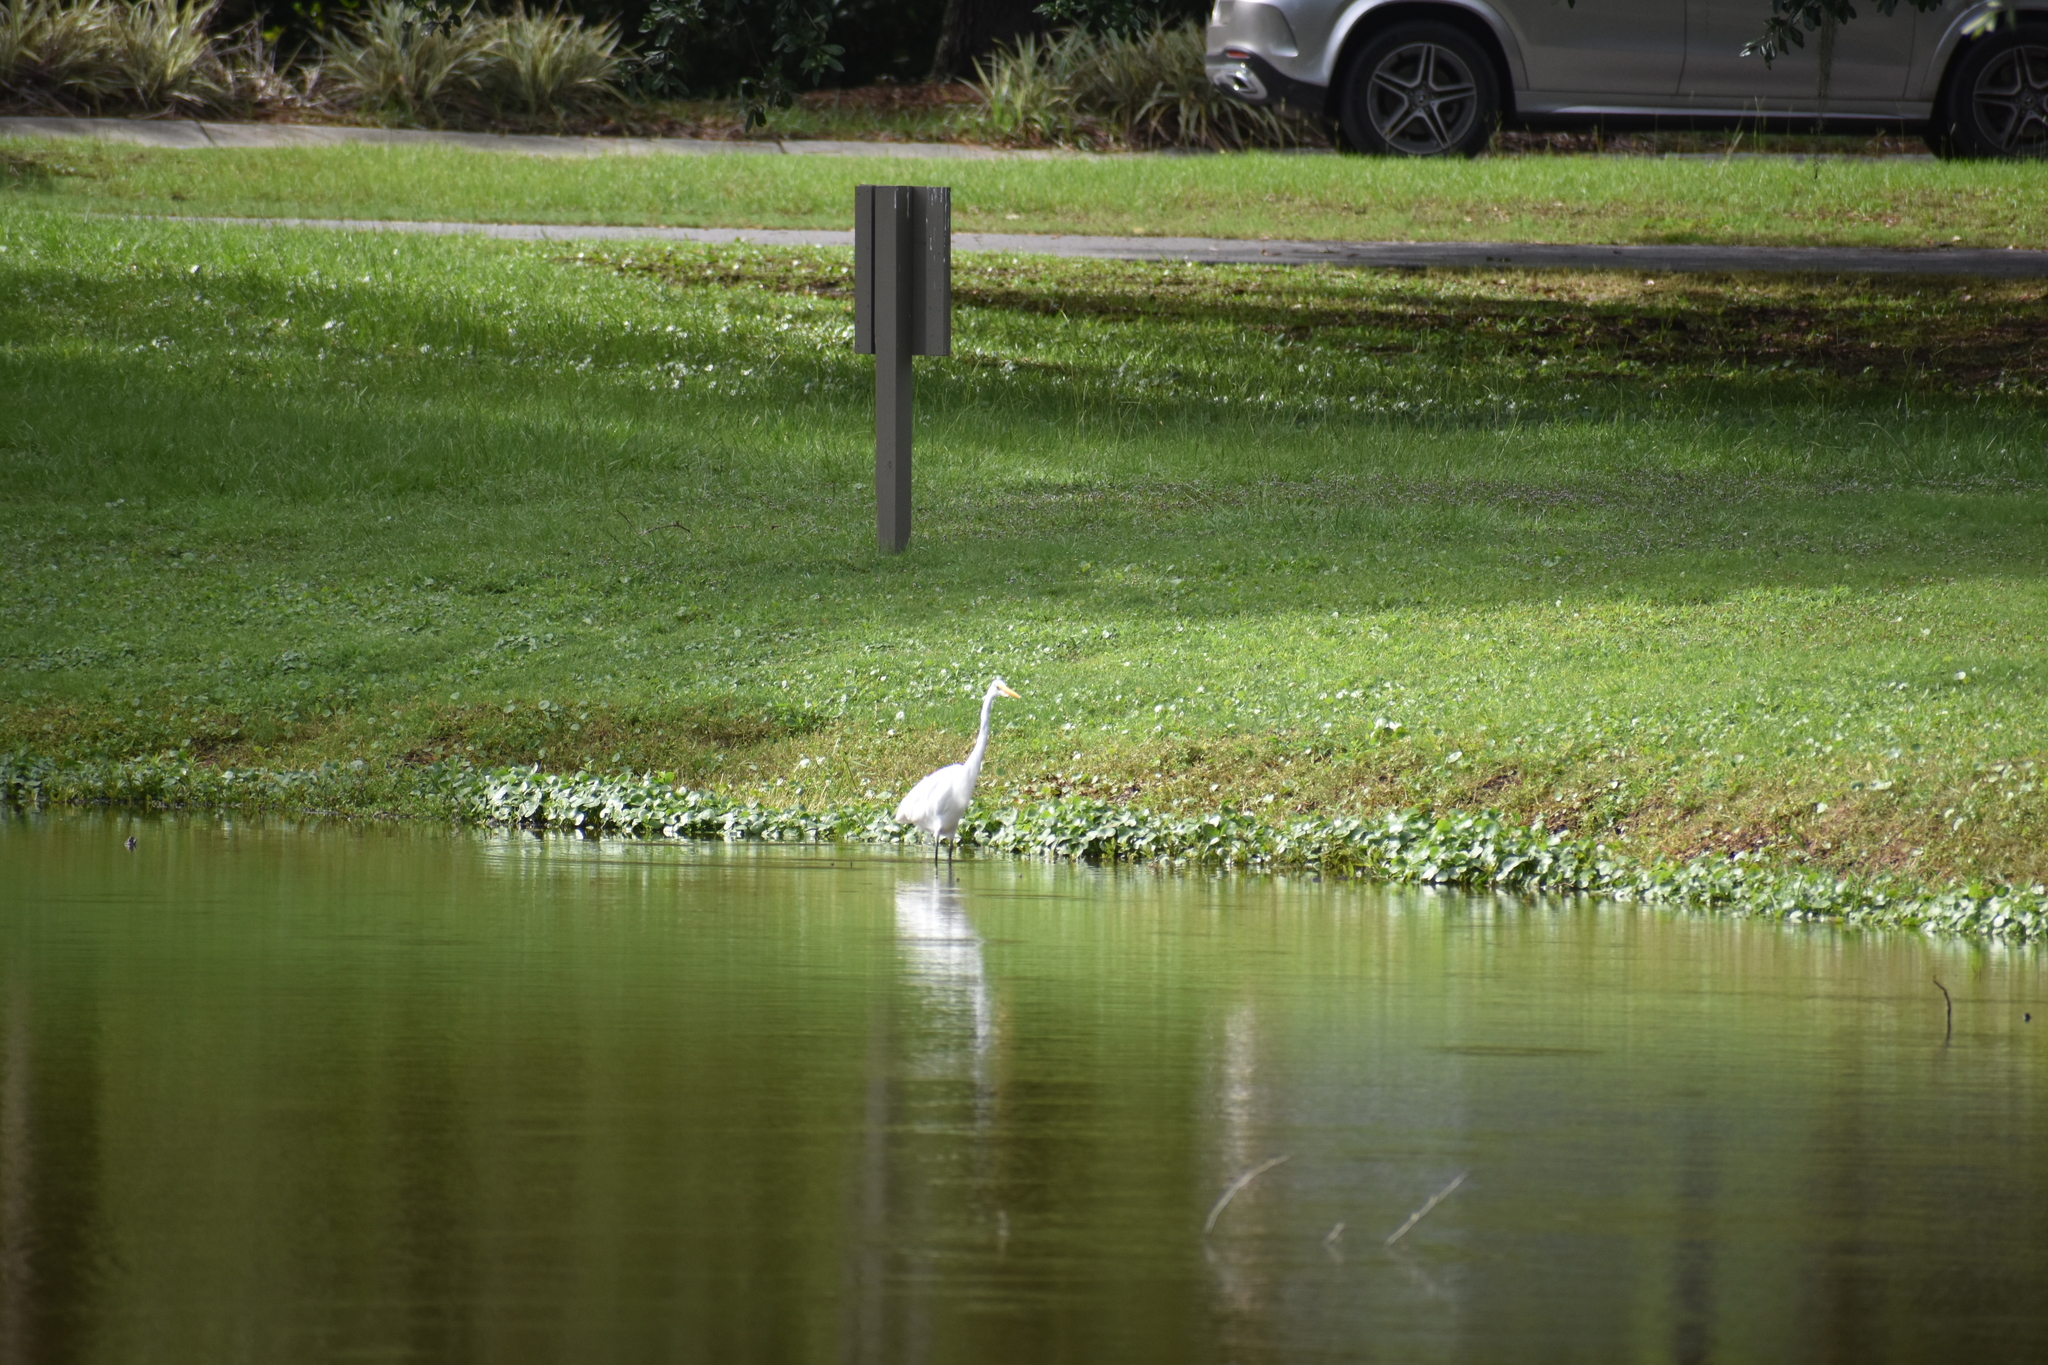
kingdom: Animalia
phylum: Chordata
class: Aves
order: Pelecaniformes
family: Ardeidae
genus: Ardea
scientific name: Ardea alba
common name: Great egret
